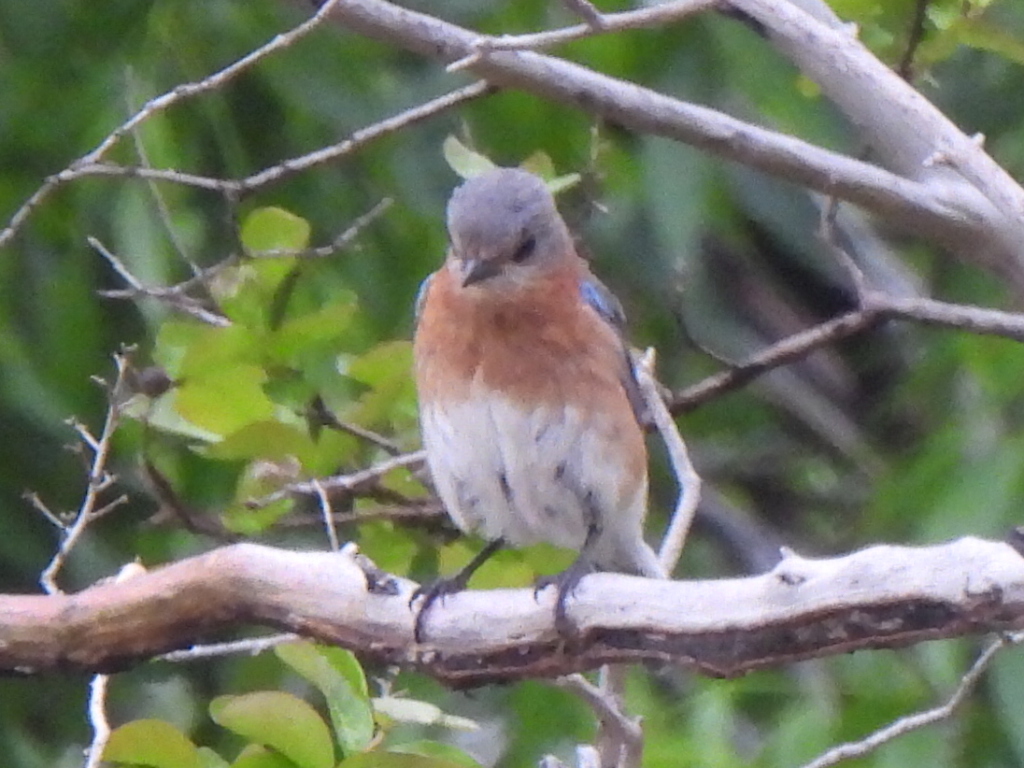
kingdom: Animalia
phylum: Chordata
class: Aves
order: Passeriformes
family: Turdidae
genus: Sialia
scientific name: Sialia sialis
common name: Eastern bluebird
